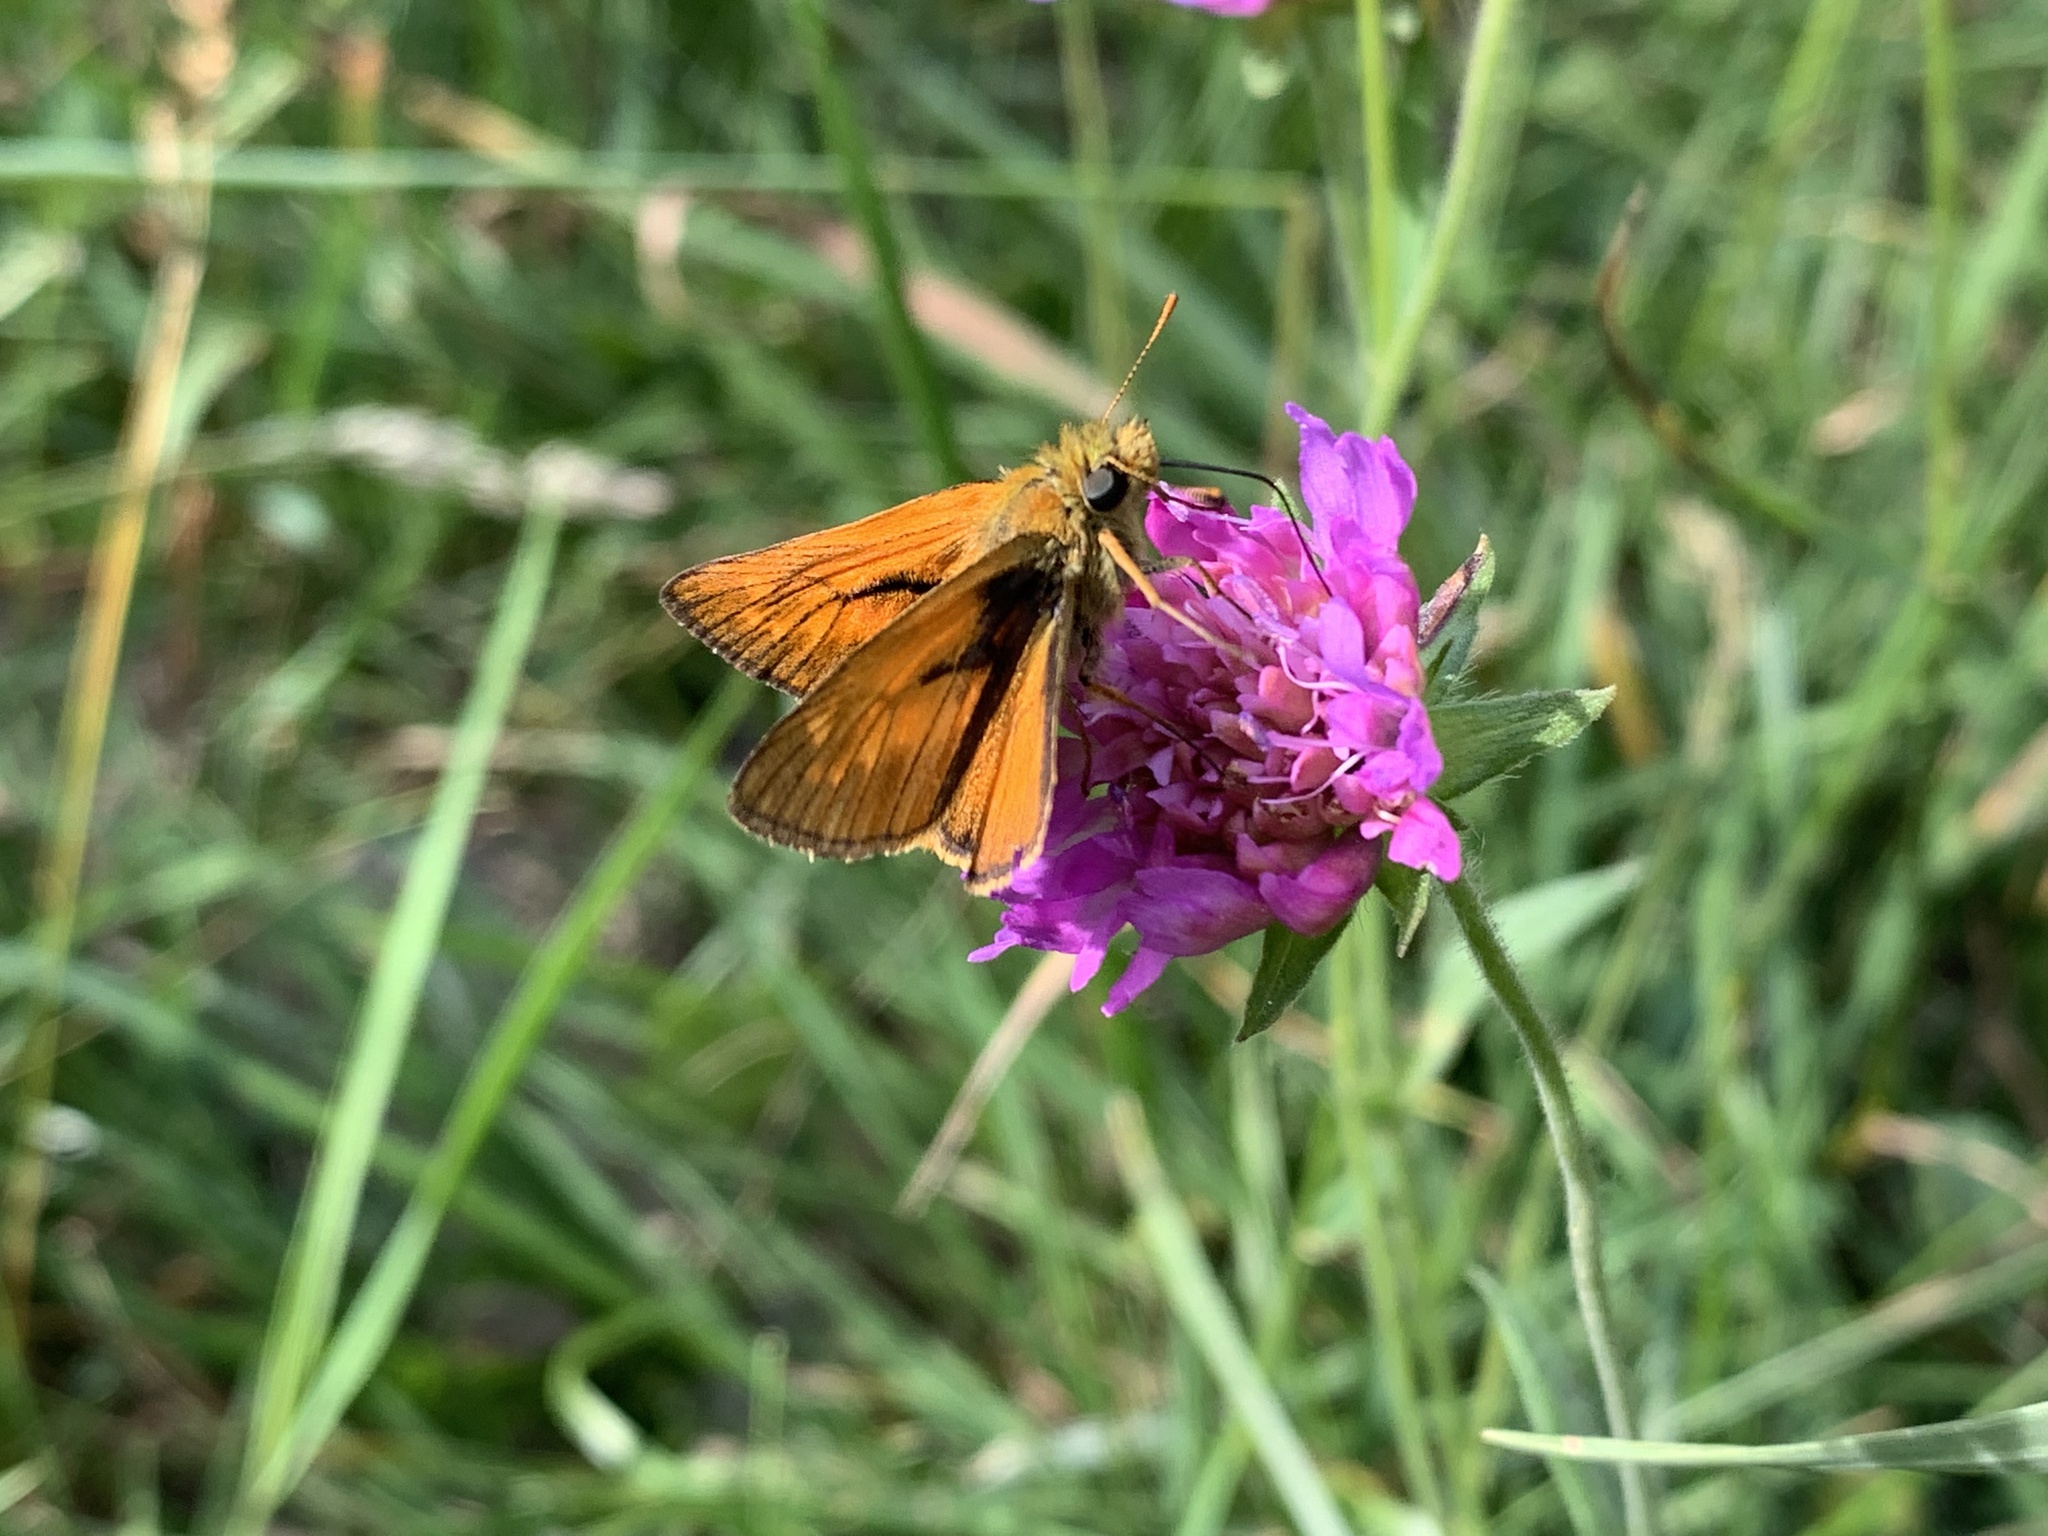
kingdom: Animalia
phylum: Arthropoda
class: Insecta
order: Lepidoptera
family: Hesperiidae
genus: Ochlodes
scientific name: Ochlodes venata
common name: Large skipper
